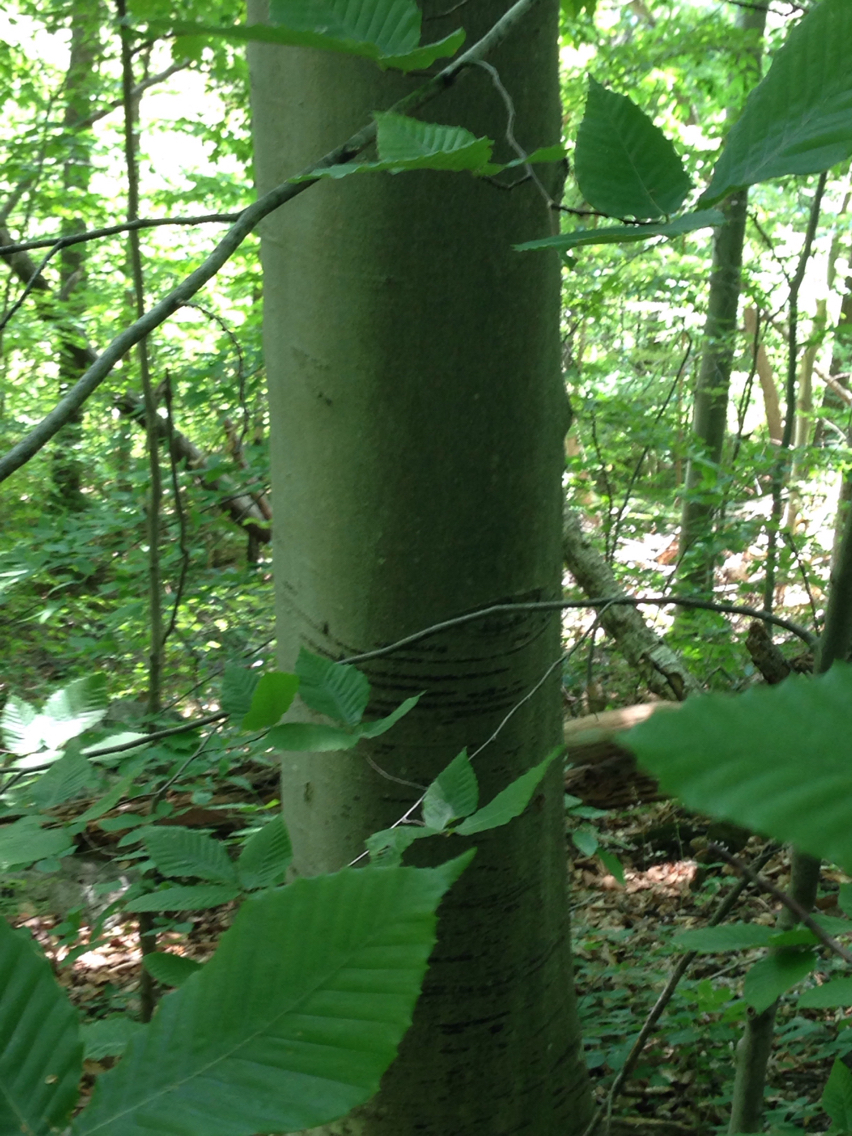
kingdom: Plantae
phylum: Tracheophyta
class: Magnoliopsida
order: Fagales
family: Fagaceae
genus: Fagus
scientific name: Fagus grandifolia
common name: American beech
